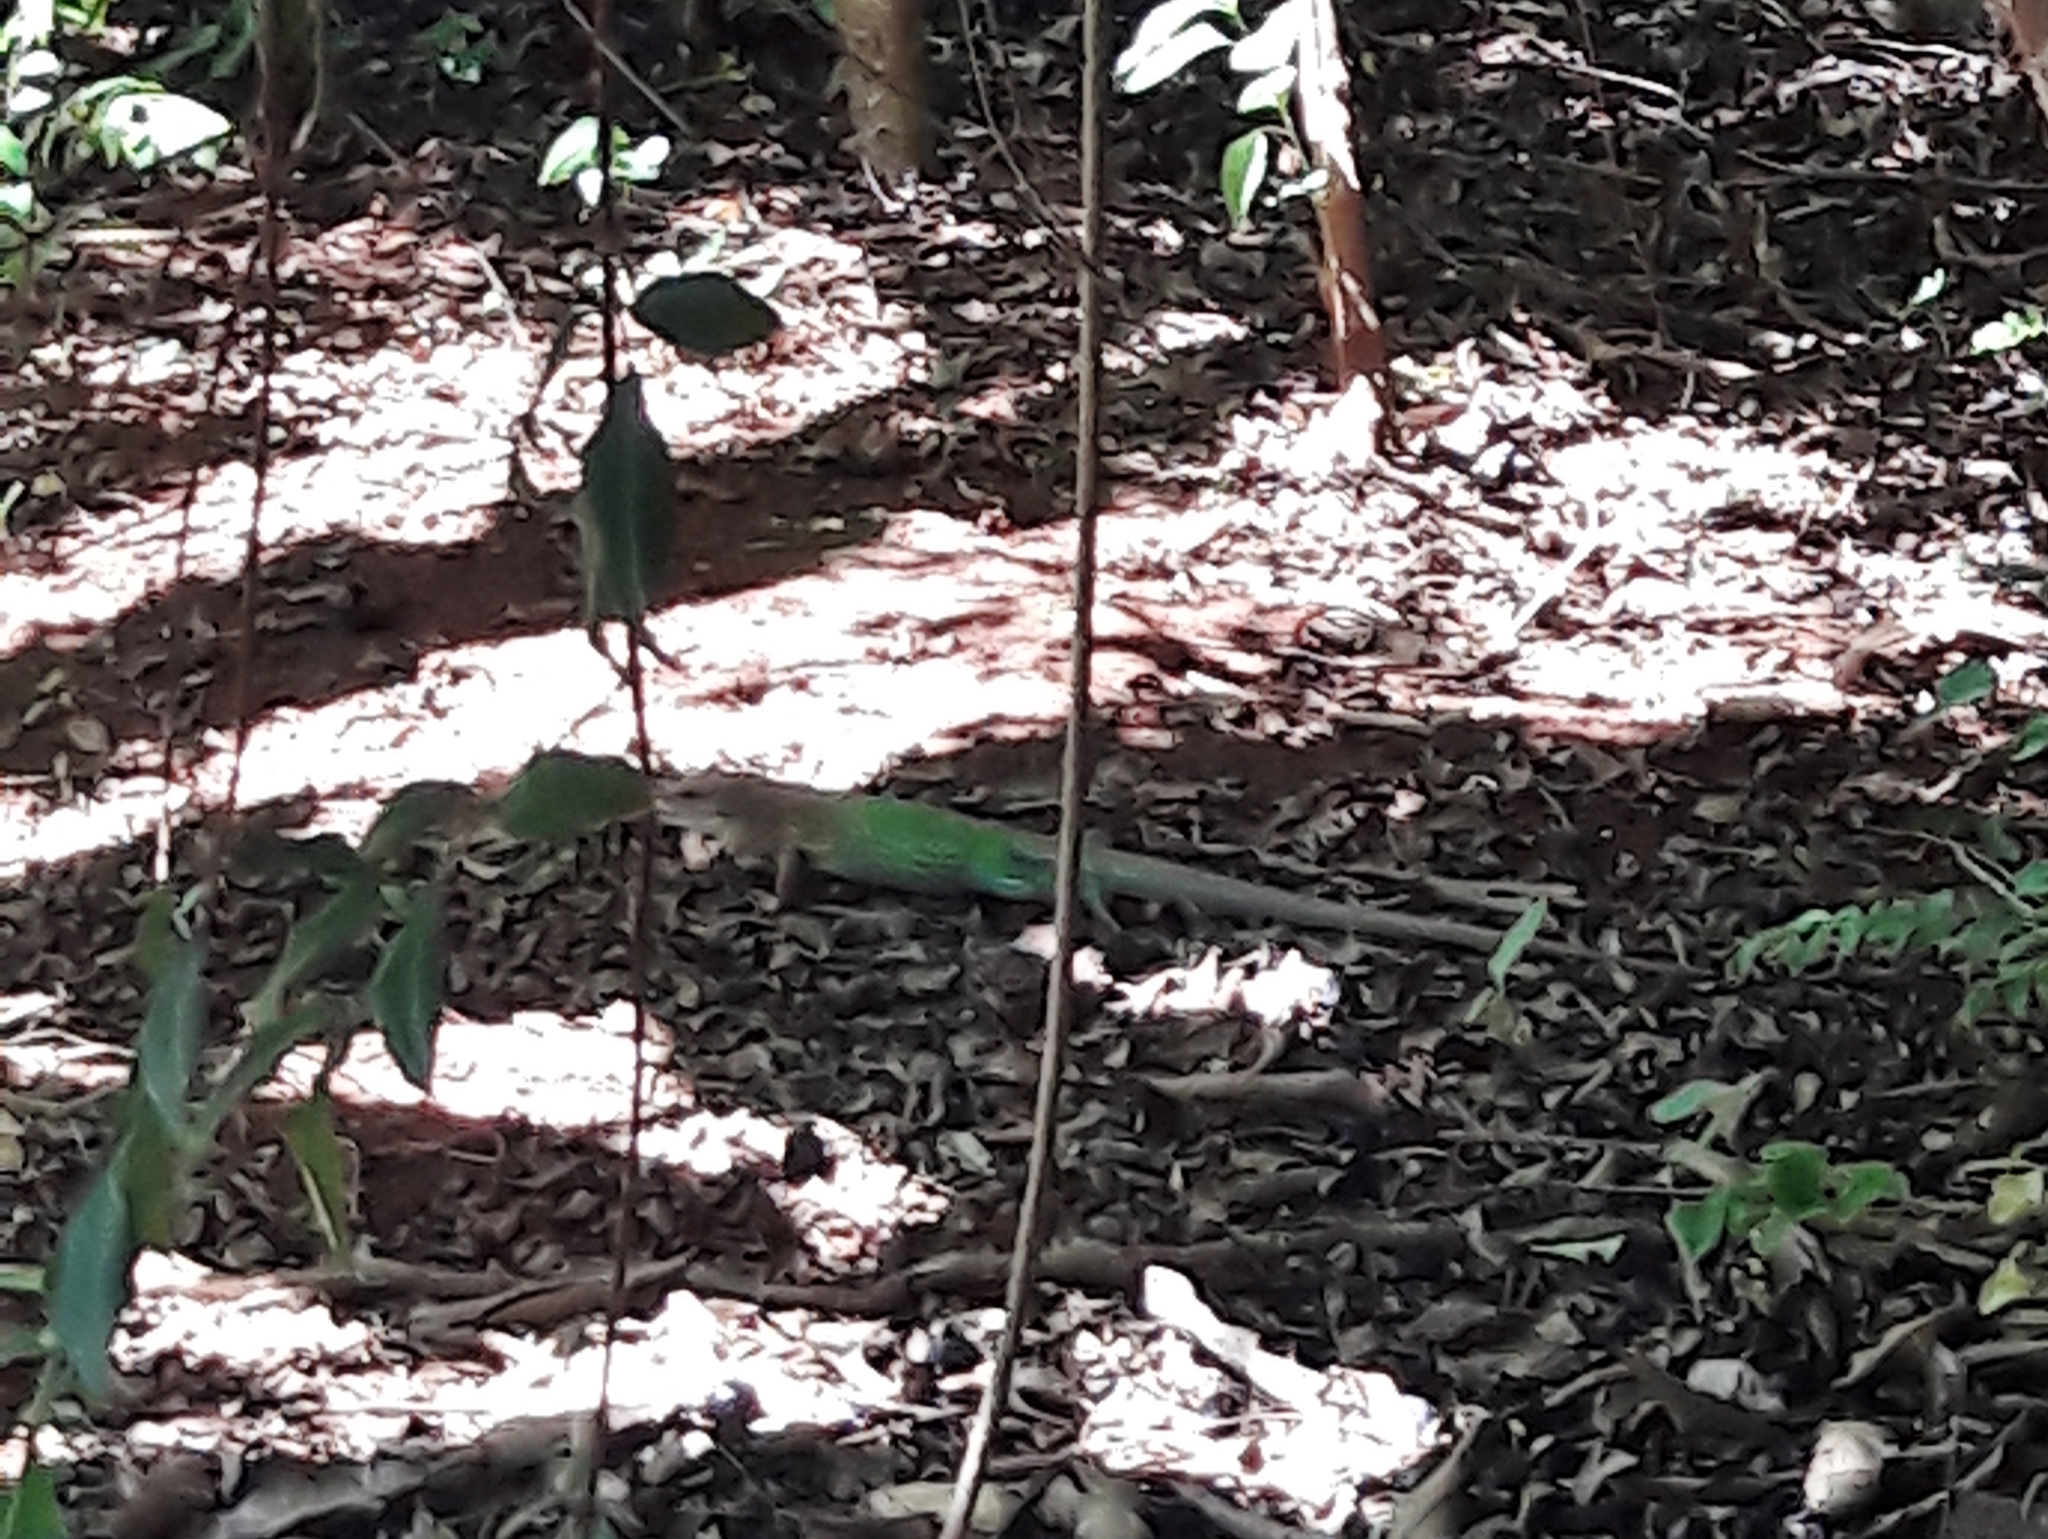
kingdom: Animalia
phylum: Chordata
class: Squamata
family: Teiidae
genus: Ameiva
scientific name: Ameiva ameiva
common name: Giant ameiva
